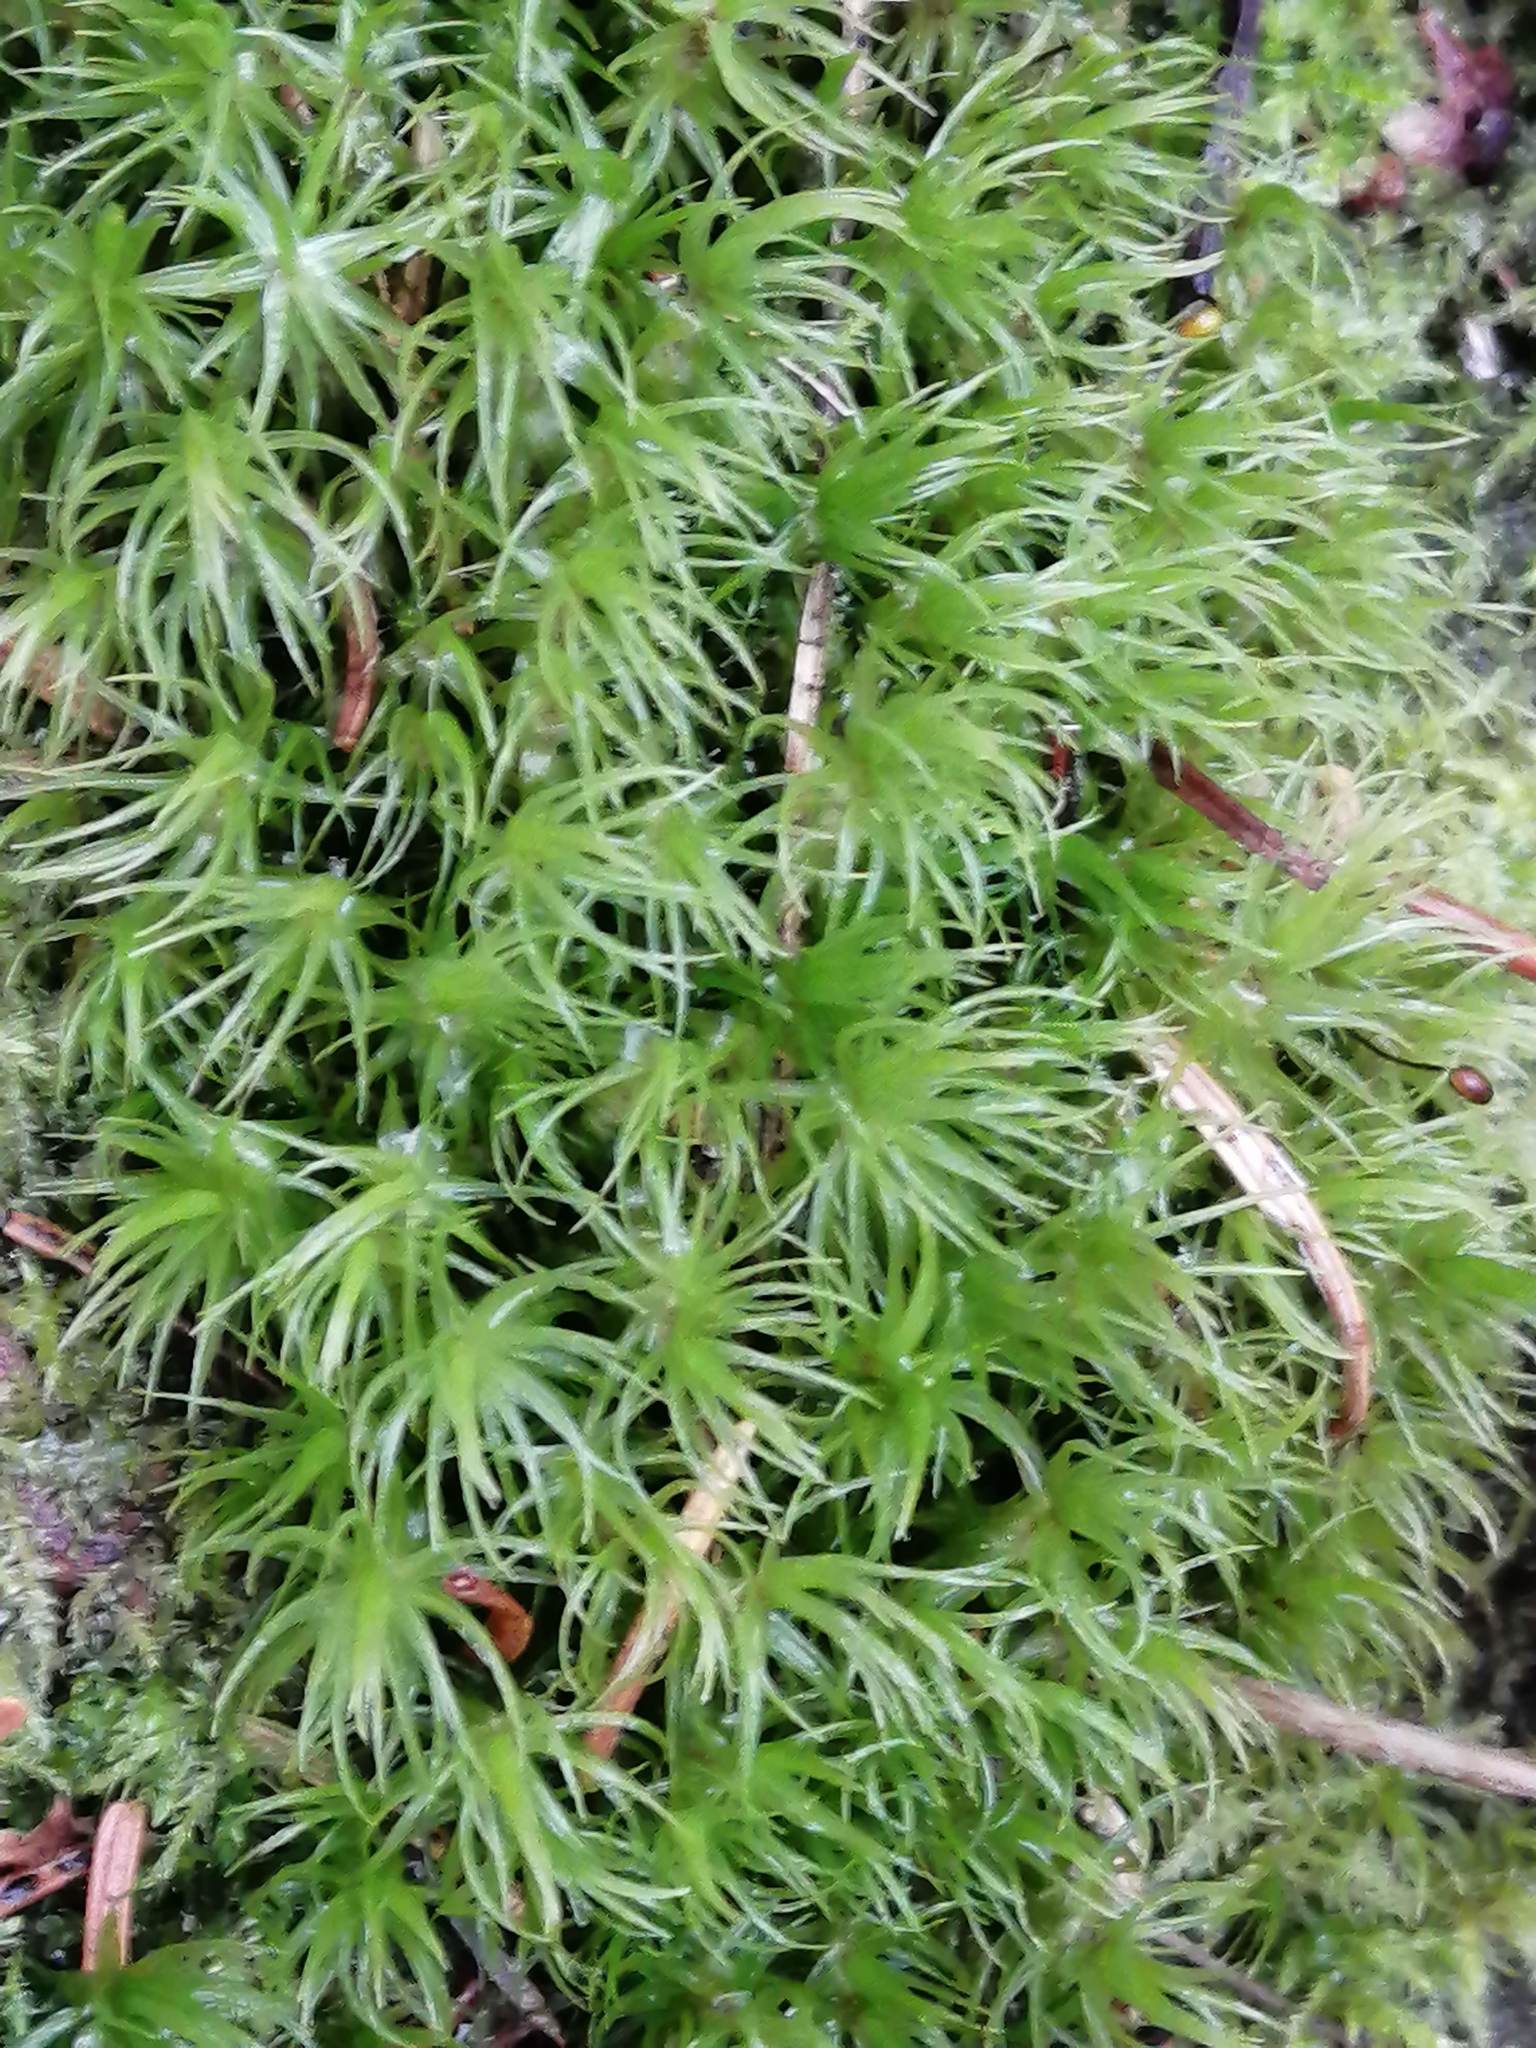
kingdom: Plantae
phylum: Bryophyta
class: Bryopsida
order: Dicranales
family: Dicranaceae
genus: Dicranum
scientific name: Dicranum scoparium
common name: Broom fork-moss
